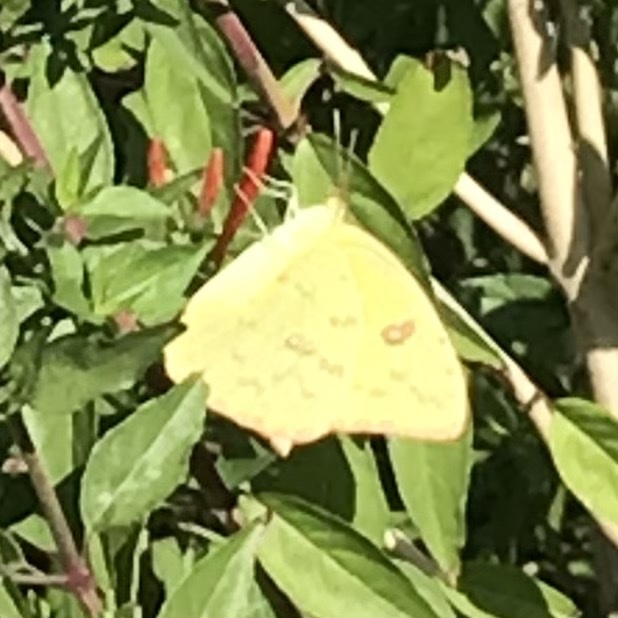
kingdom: Animalia
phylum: Arthropoda
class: Insecta
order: Lepidoptera
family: Pieridae
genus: Phoebis
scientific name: Phoebis sennae
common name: Cloudless sulphur
